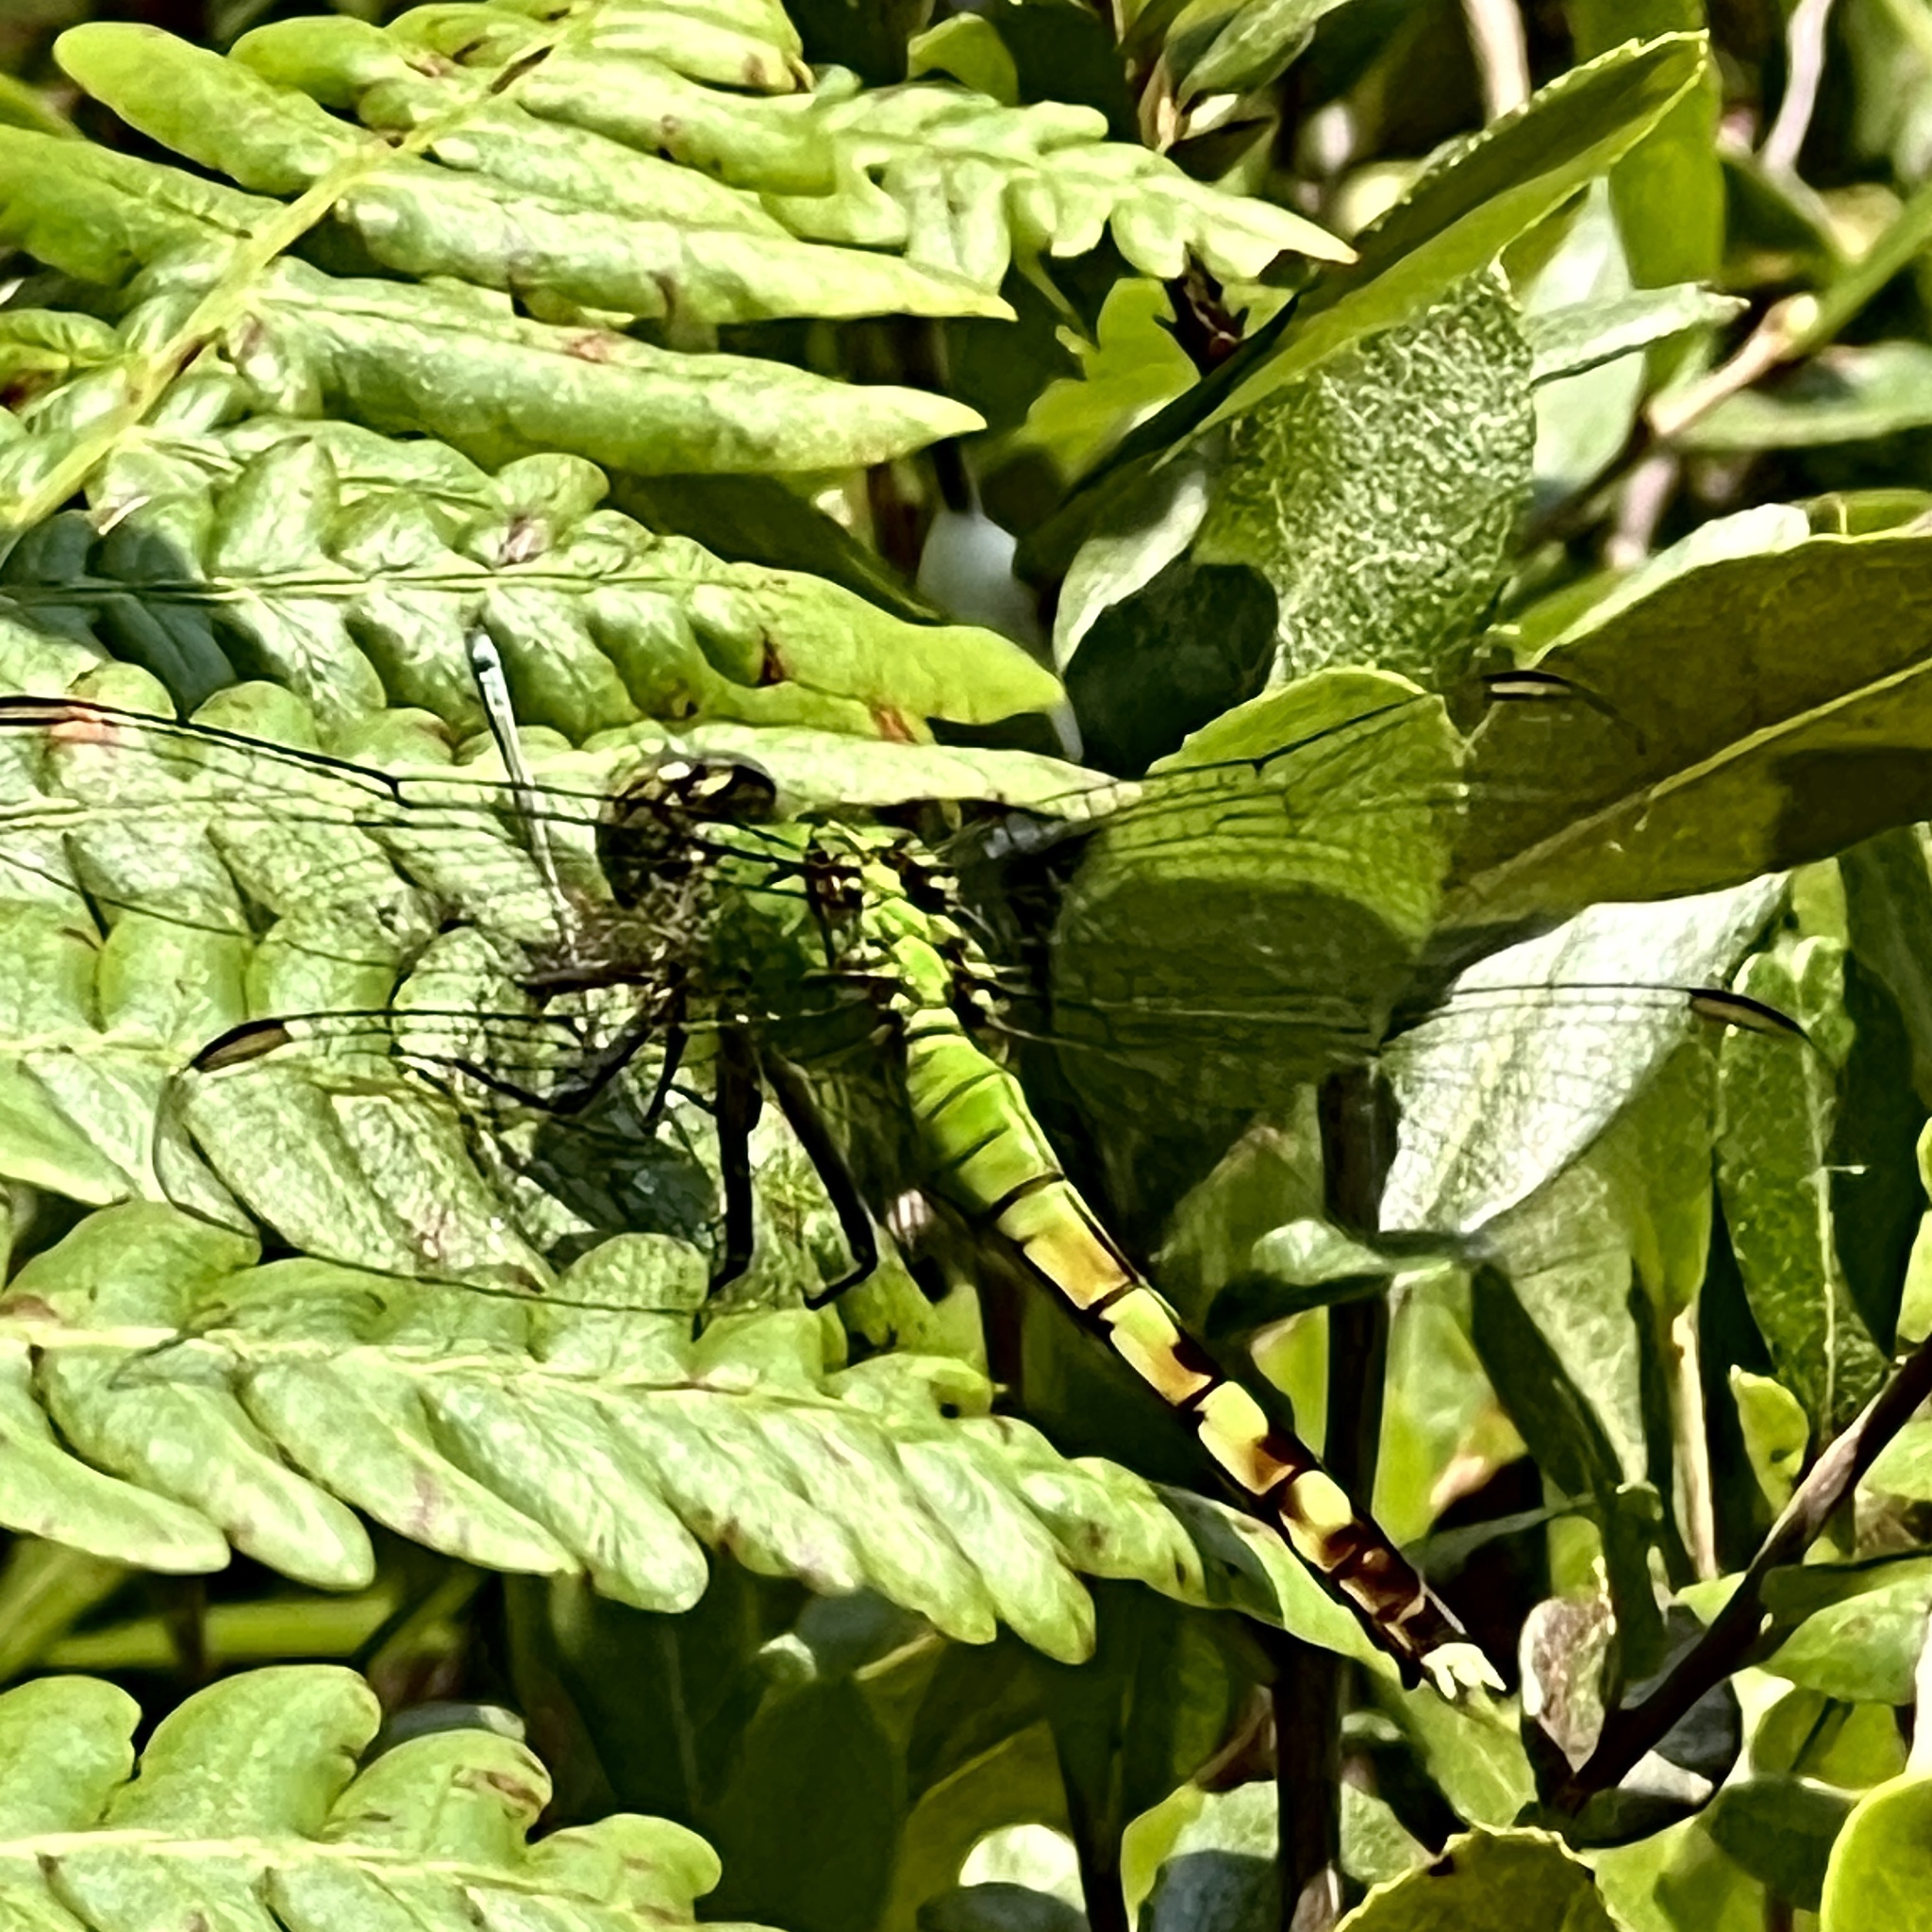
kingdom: Animalia
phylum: Arthropoda
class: Insecta
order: Odonata
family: Libellulidae
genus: Erythemis
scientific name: Erythemis simplicicollis
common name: Eastern pondhawk
